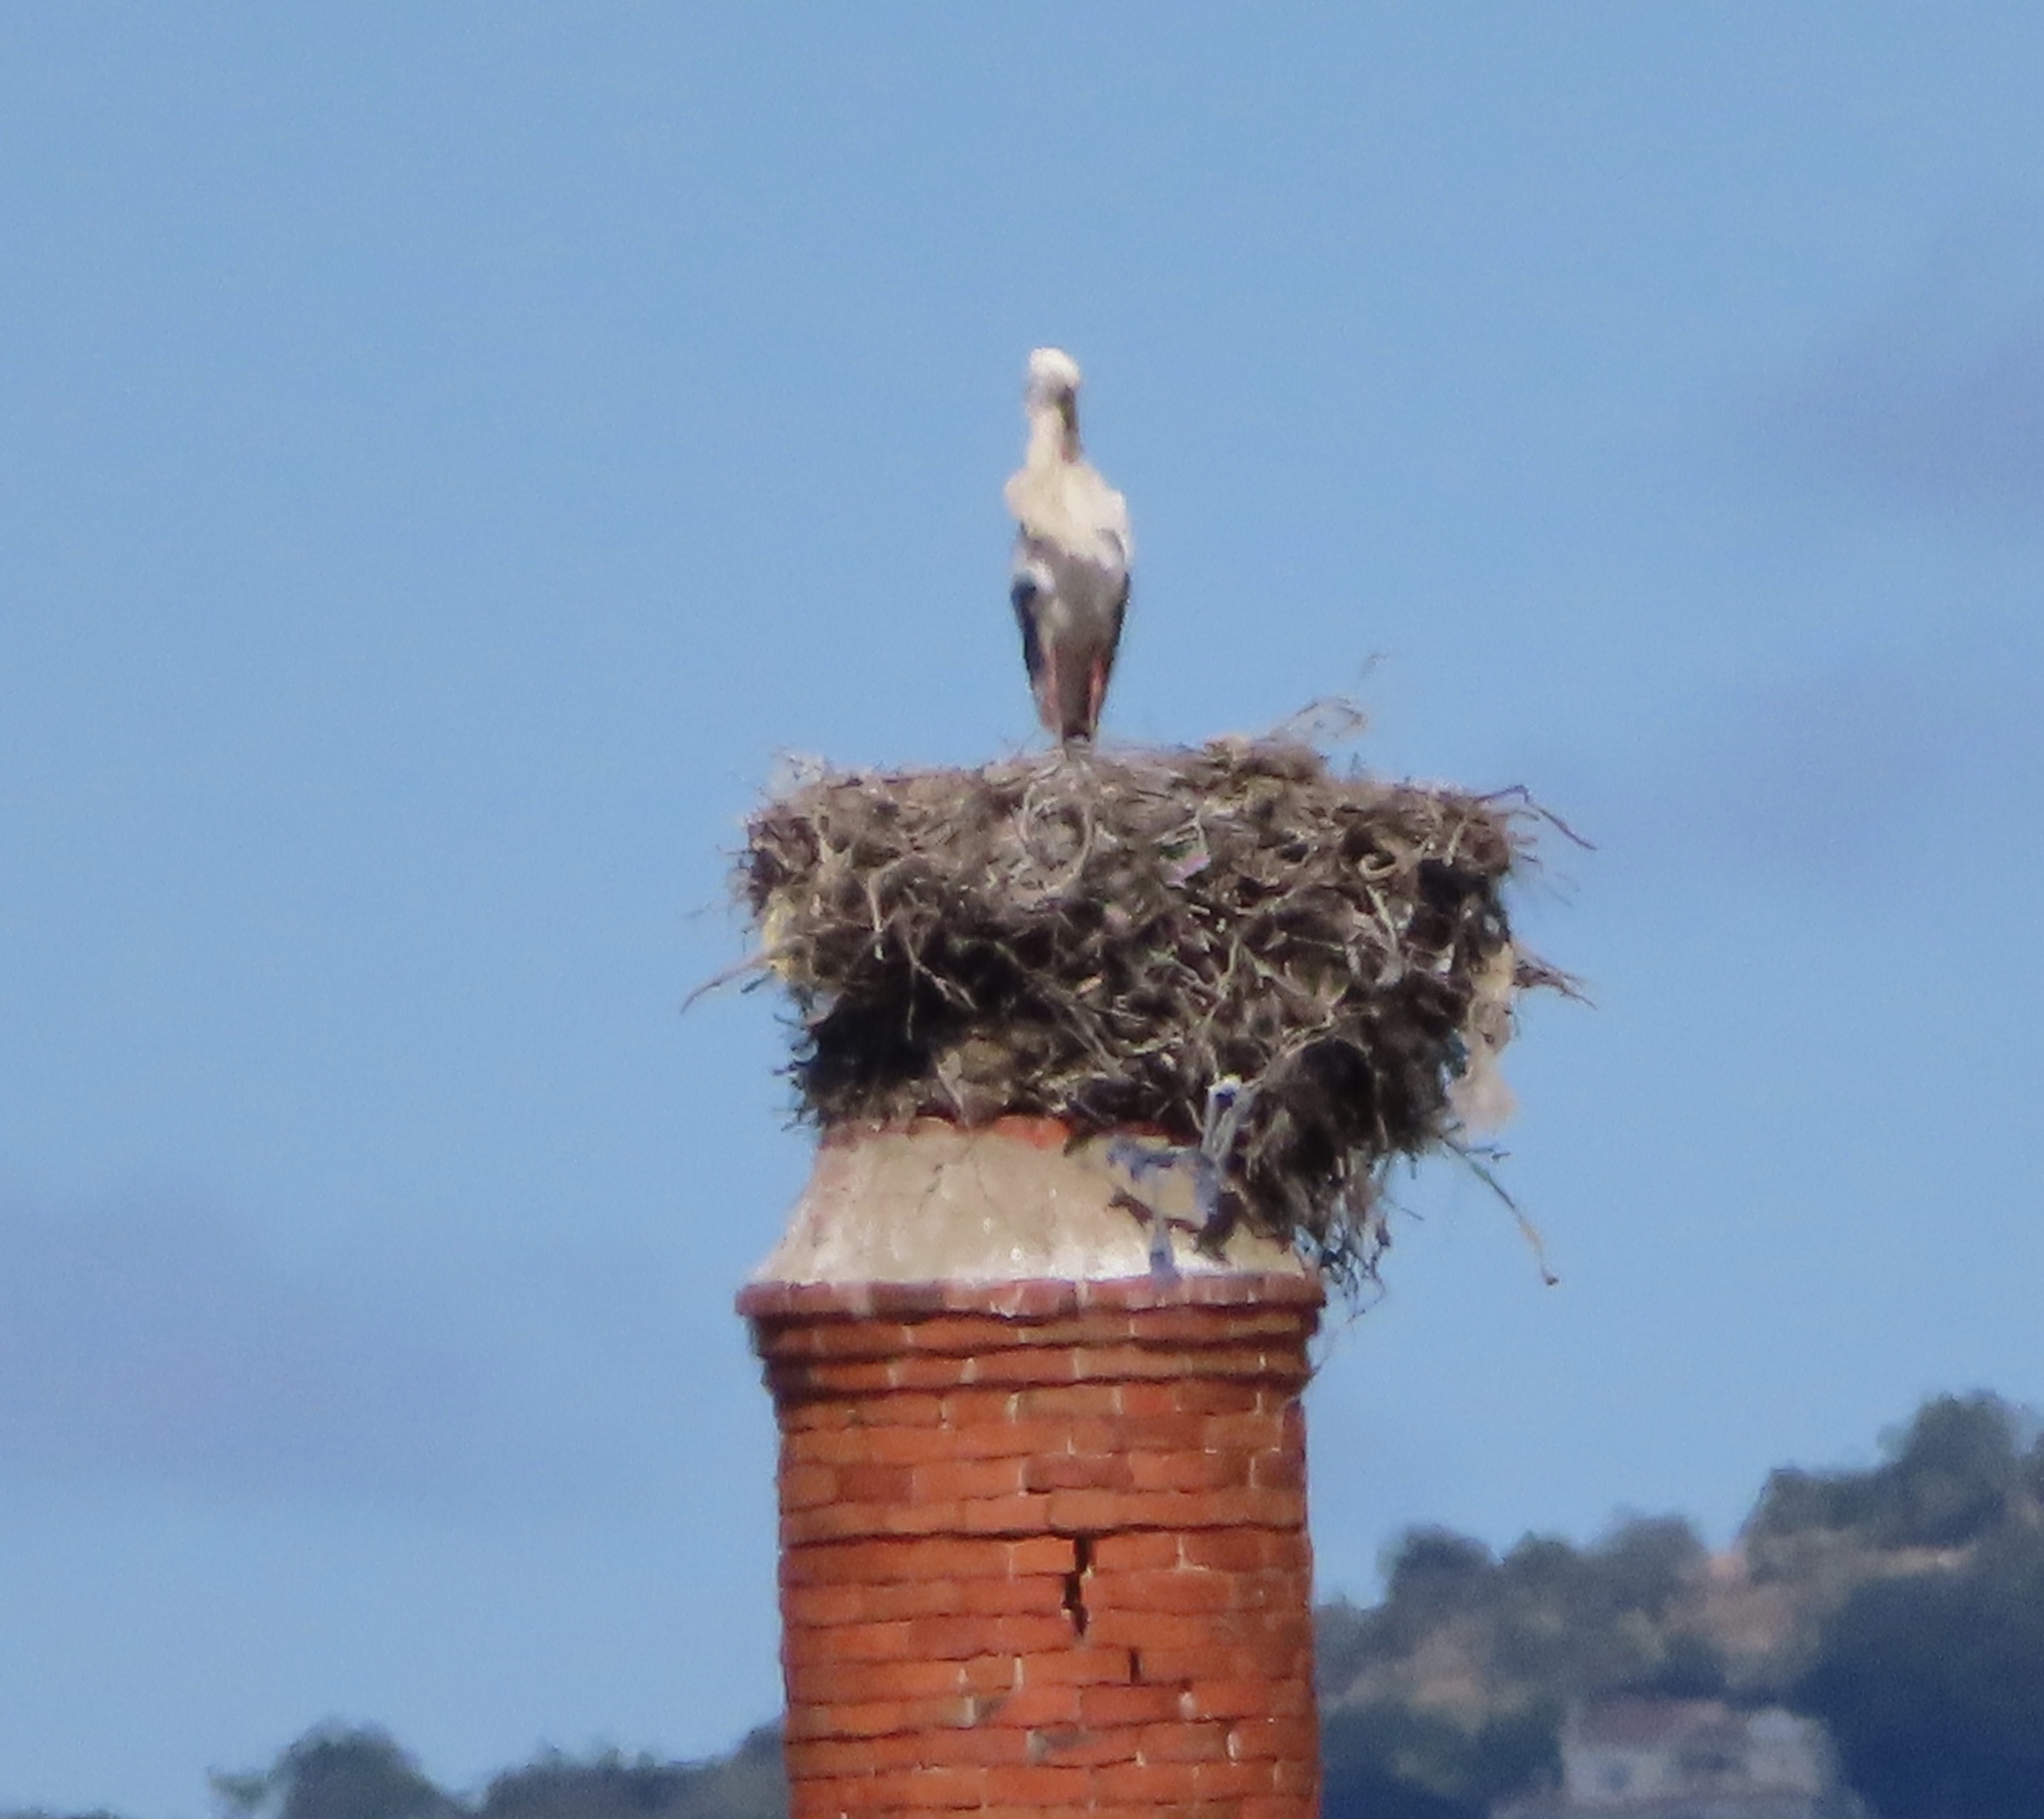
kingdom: Animalia
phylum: Chordata
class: Aves
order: Ciconiiformes
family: Ciconiidae
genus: Ciconia
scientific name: Ciconia ciconia
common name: White stork
